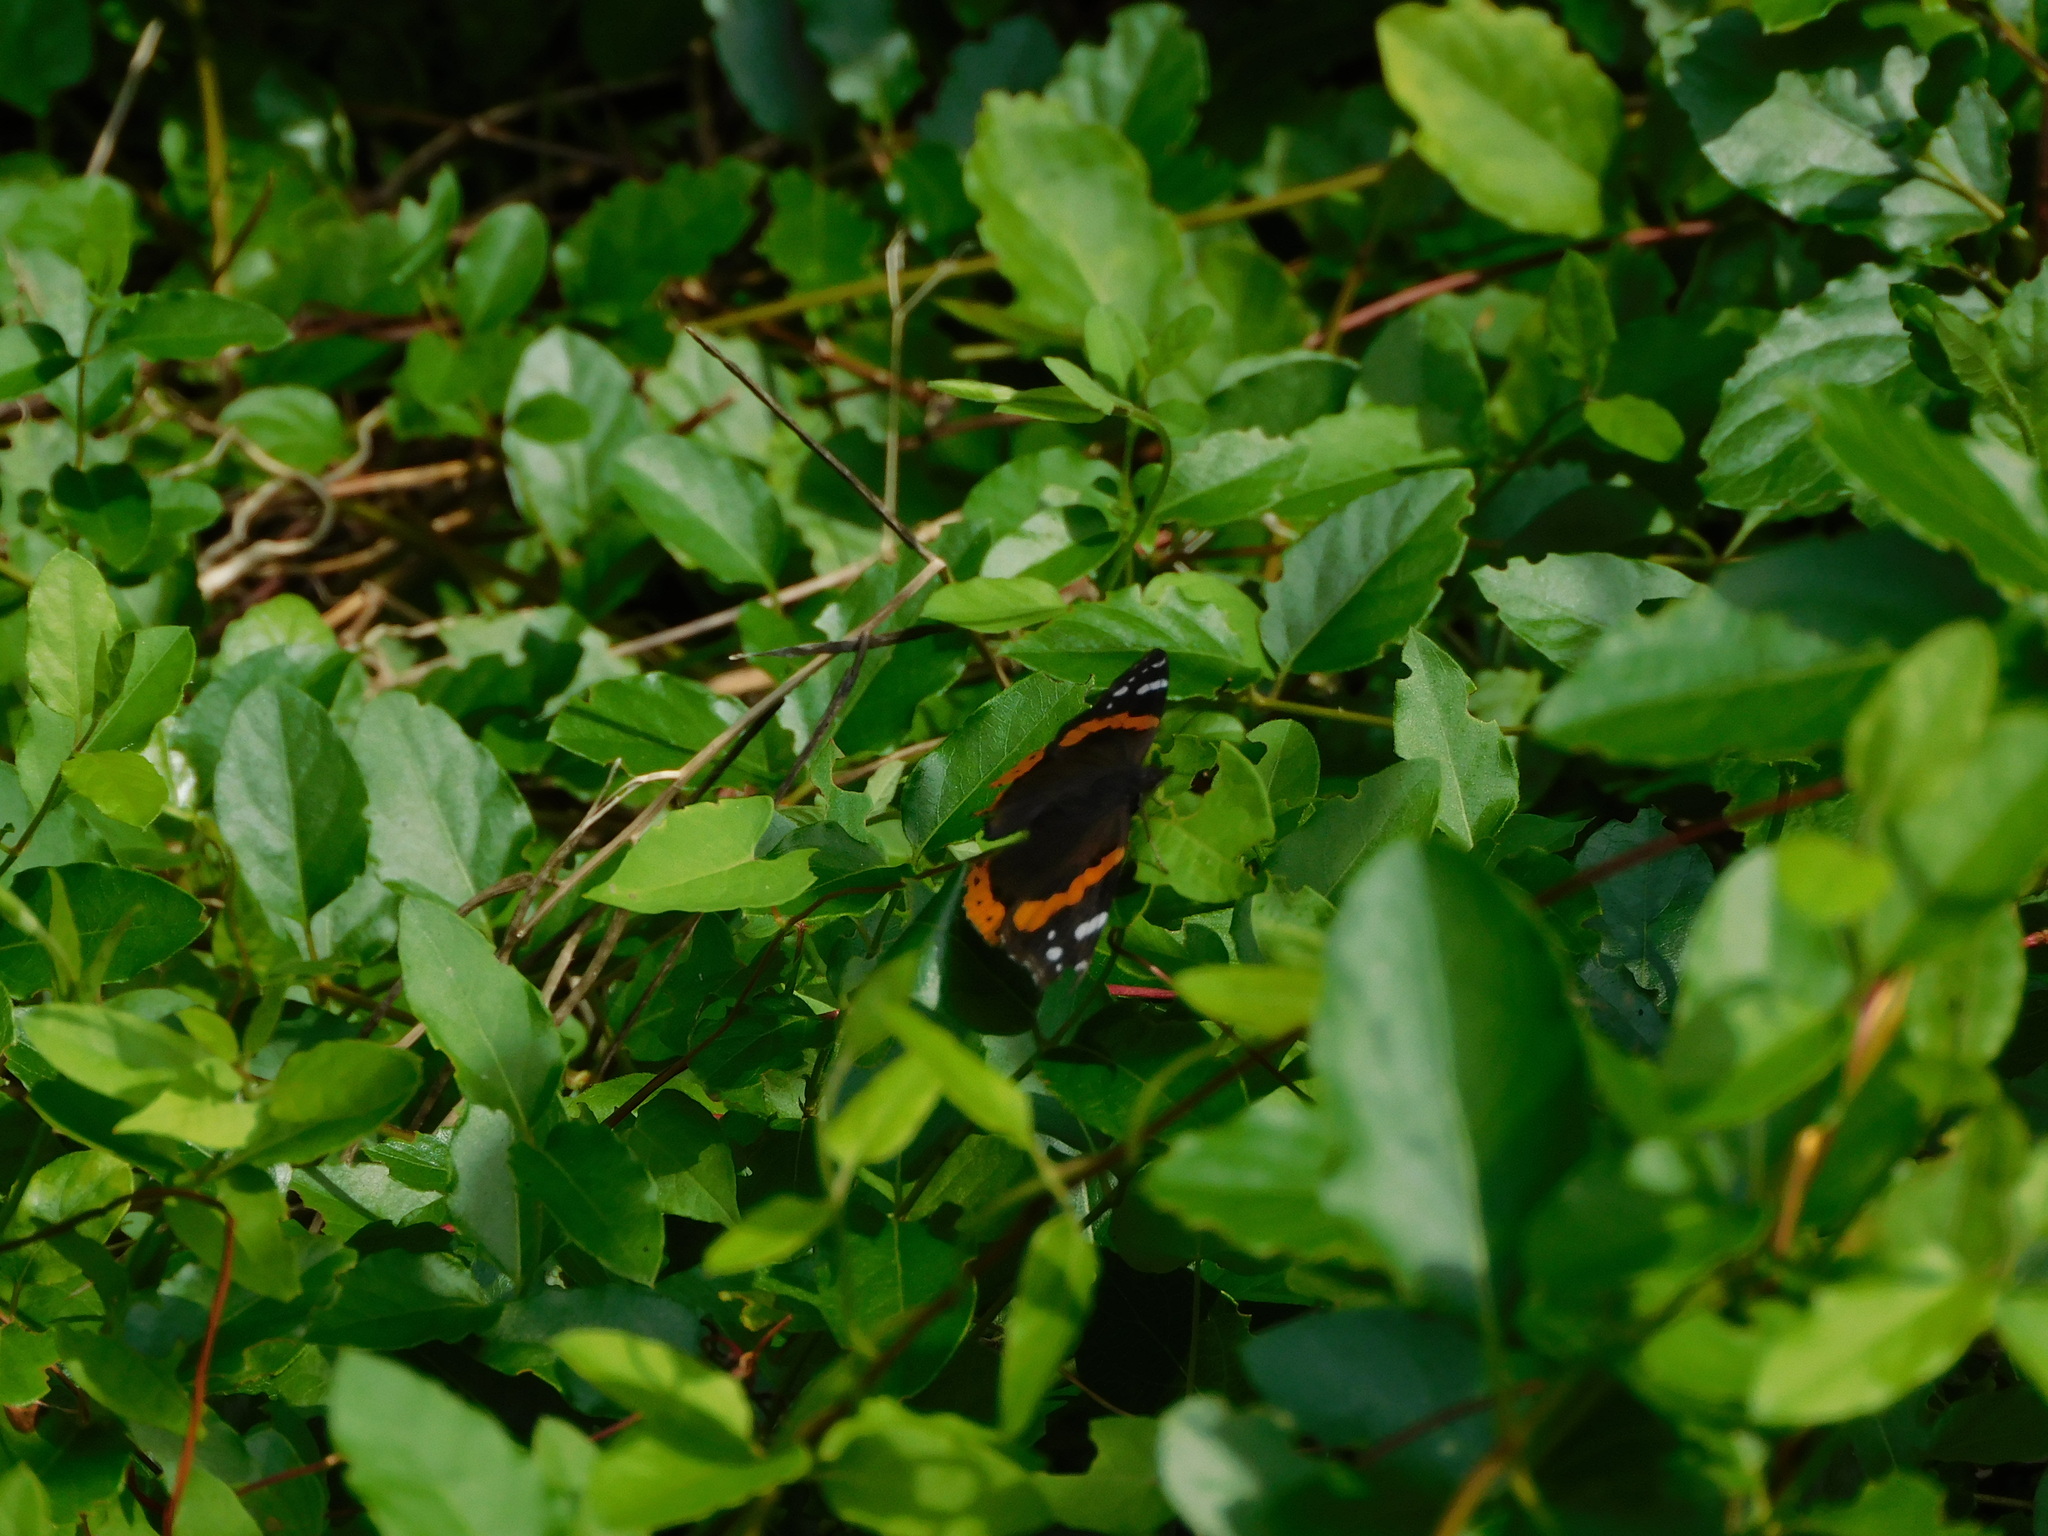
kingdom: Animalia
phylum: Arthropoda
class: Insecta
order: Lepidoptera
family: Nymphalidae
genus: Vanessa
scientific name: Vanessa atalanta
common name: Red admiral
